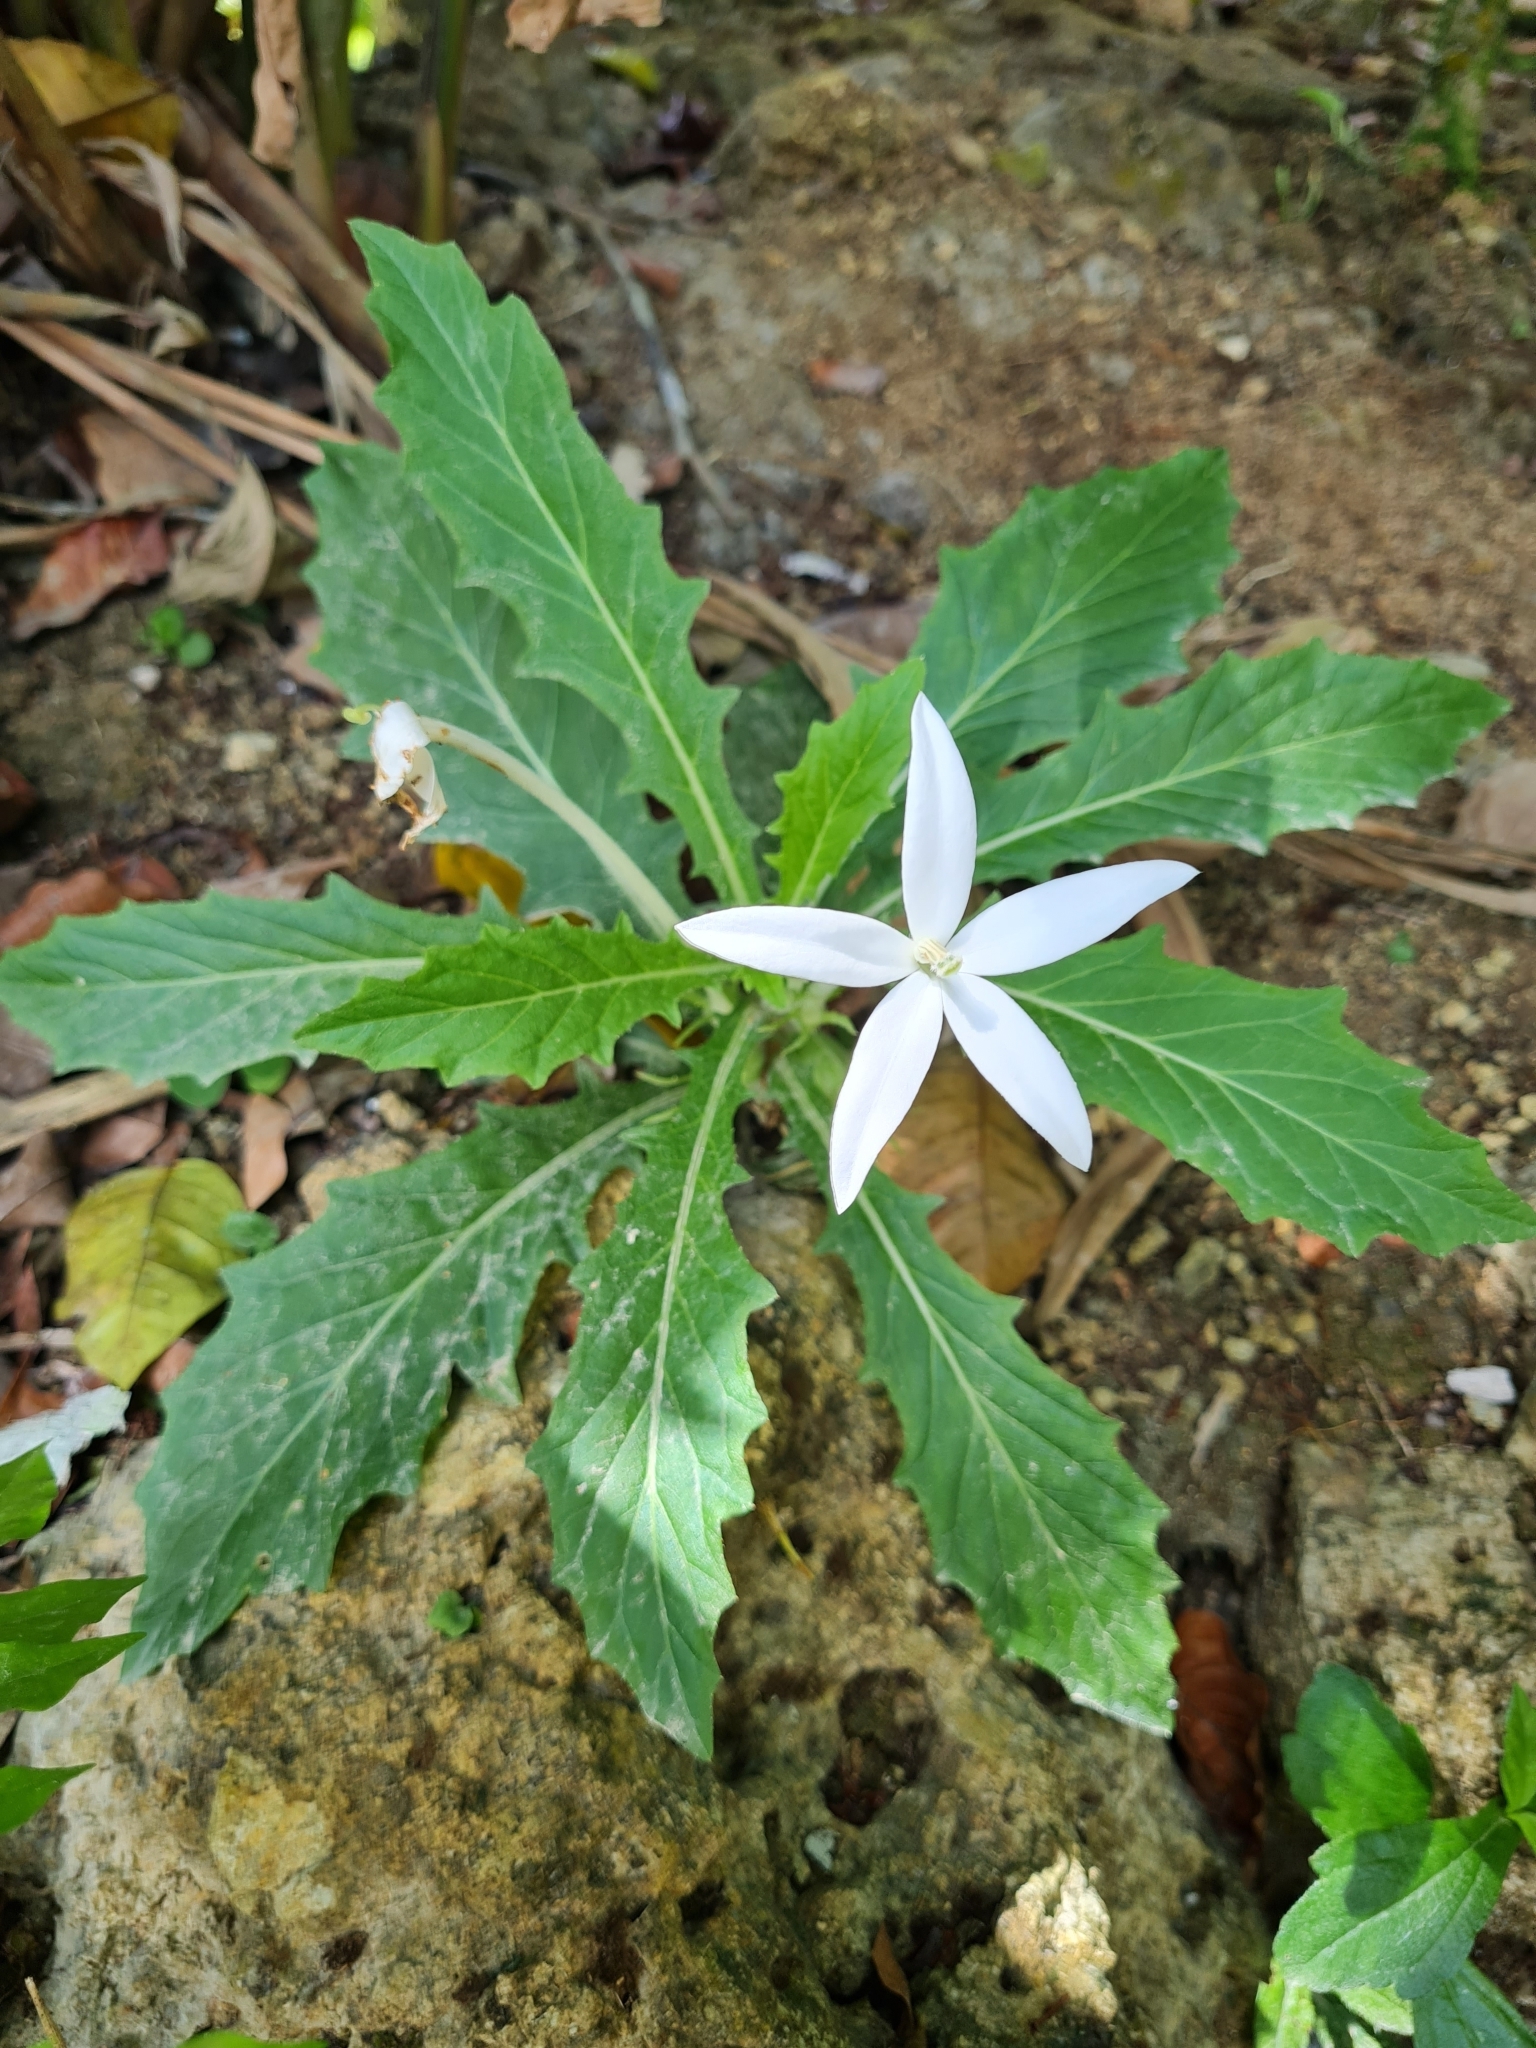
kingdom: Plantae
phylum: Tracheophyta
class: Magnoliopsida
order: Asterales
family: Campanulaceae
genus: Hippobroma
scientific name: Hippobroma longiflora
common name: Madamfate
